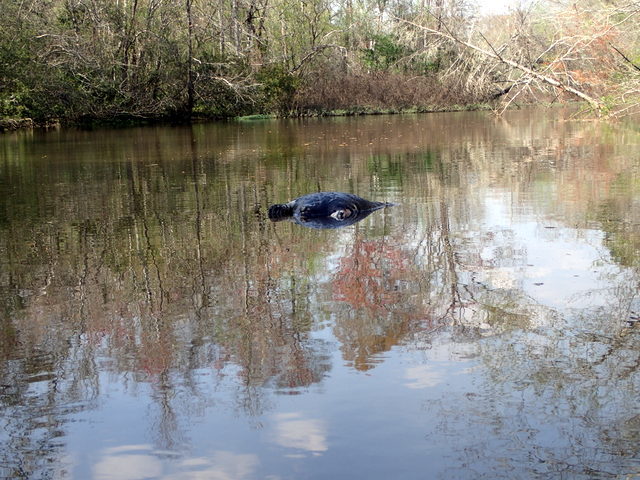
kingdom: Animalia
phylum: Chordata
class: Mammalia
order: Rodentia
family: Castoridae
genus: Castor
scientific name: Castor canadensis
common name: American beaver
